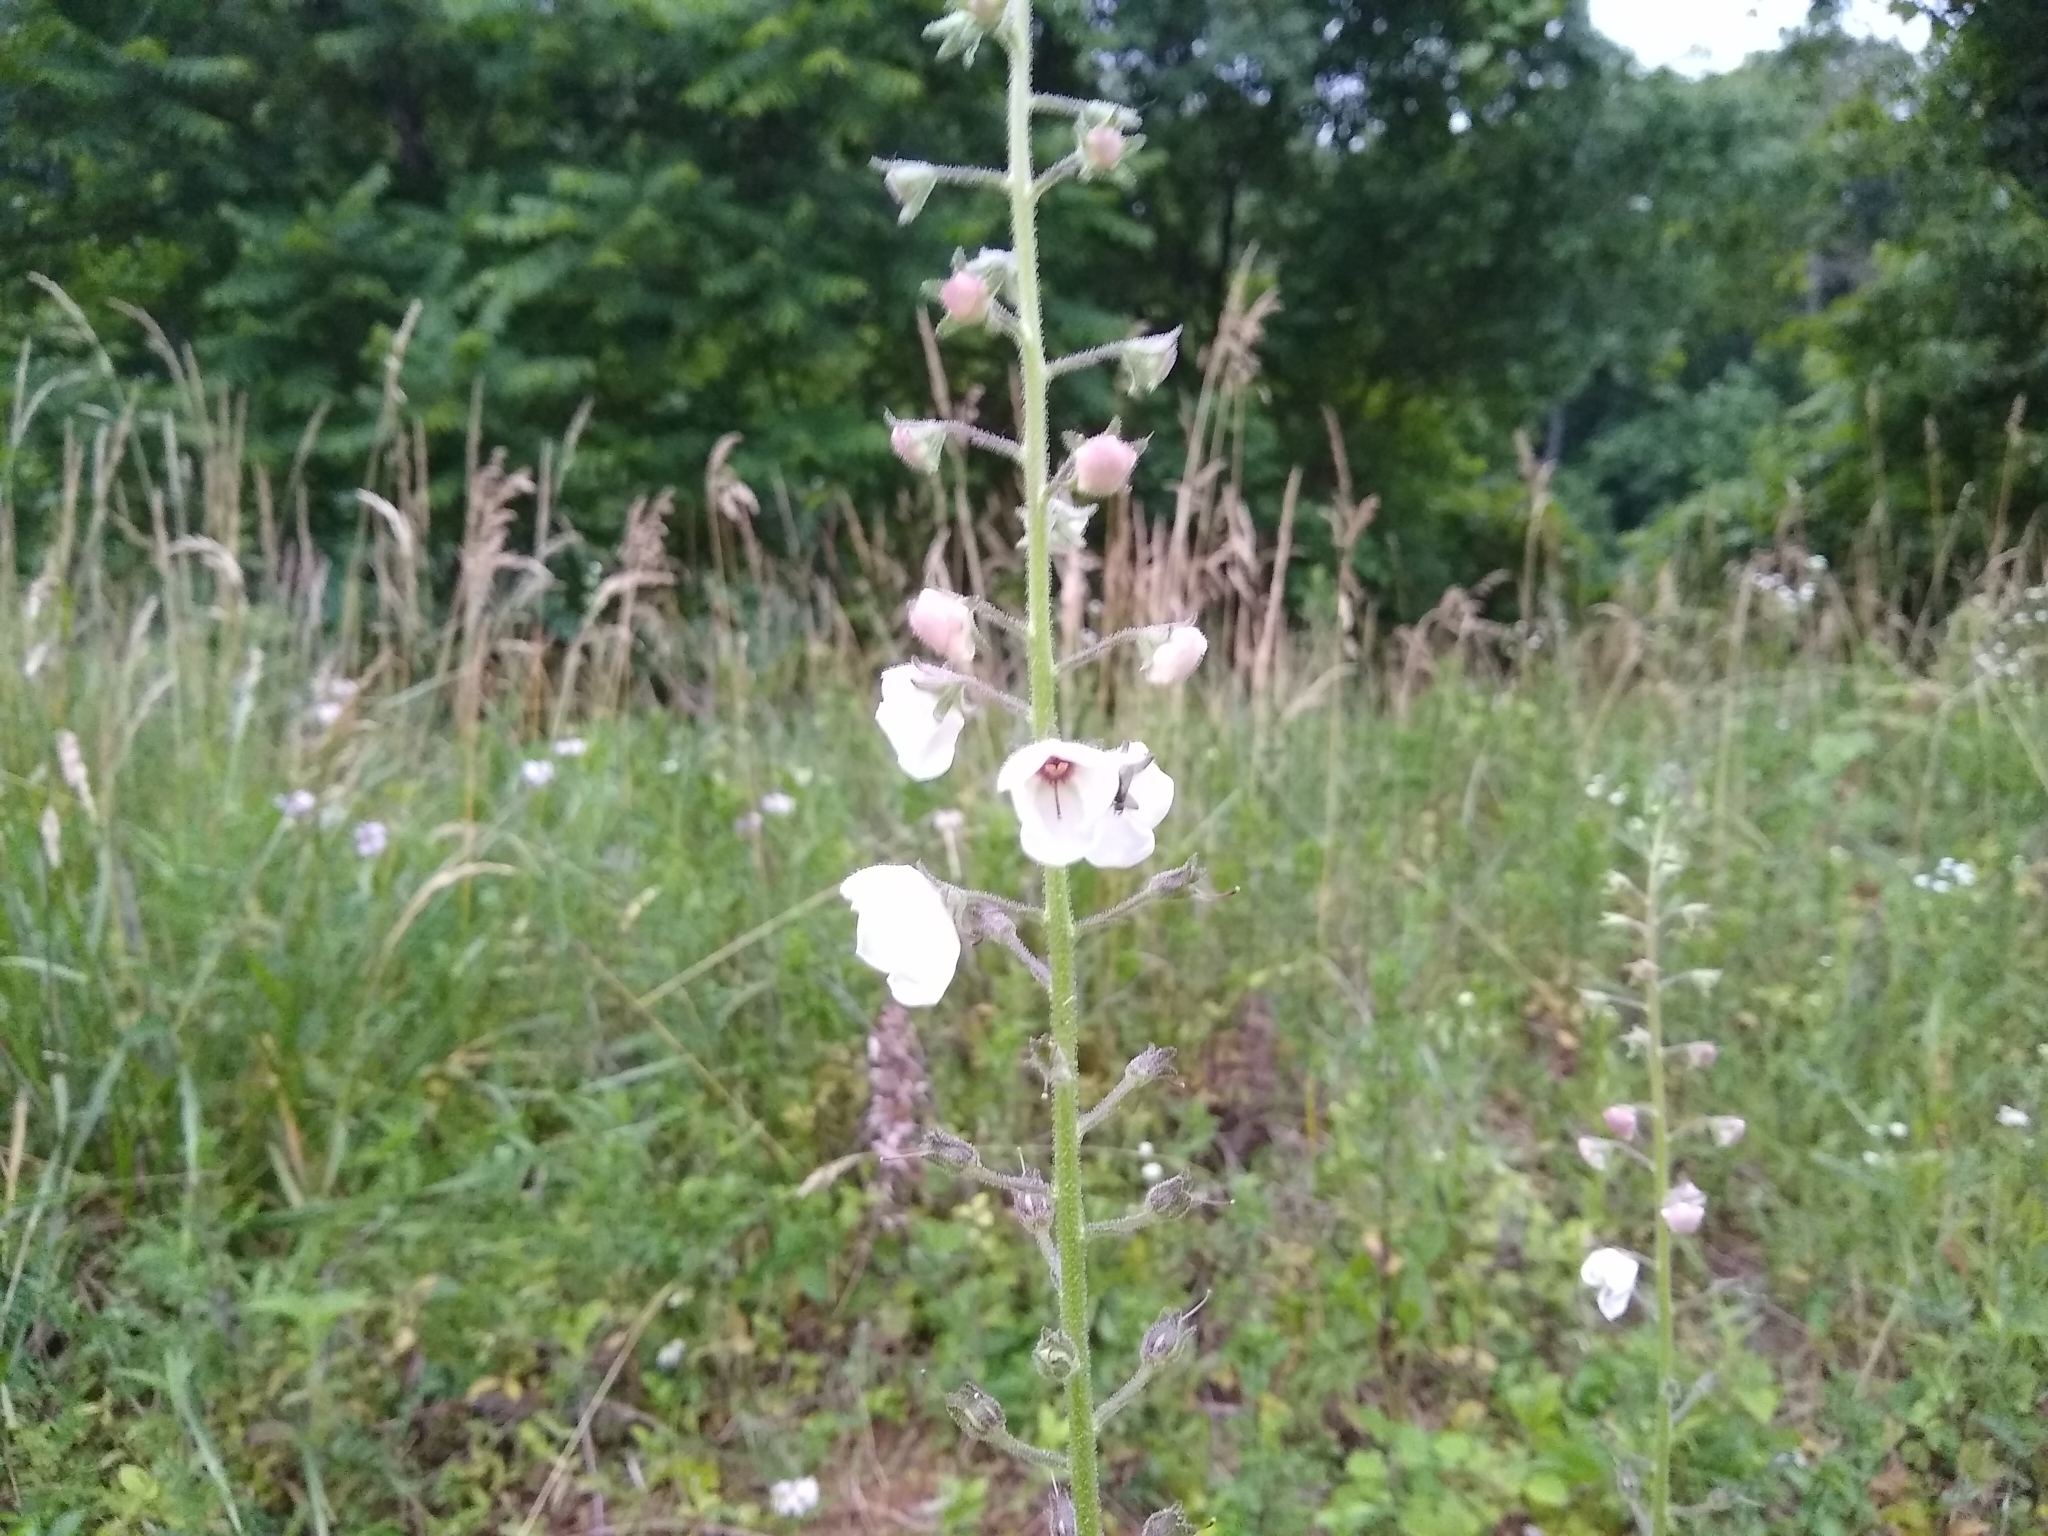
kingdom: Plantae
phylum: Tracheophyta
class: Magnoliopsida
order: Lamiales
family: Scrophulariaceae
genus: Verbascum
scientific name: Verbascum blattaria
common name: Moth mullein
